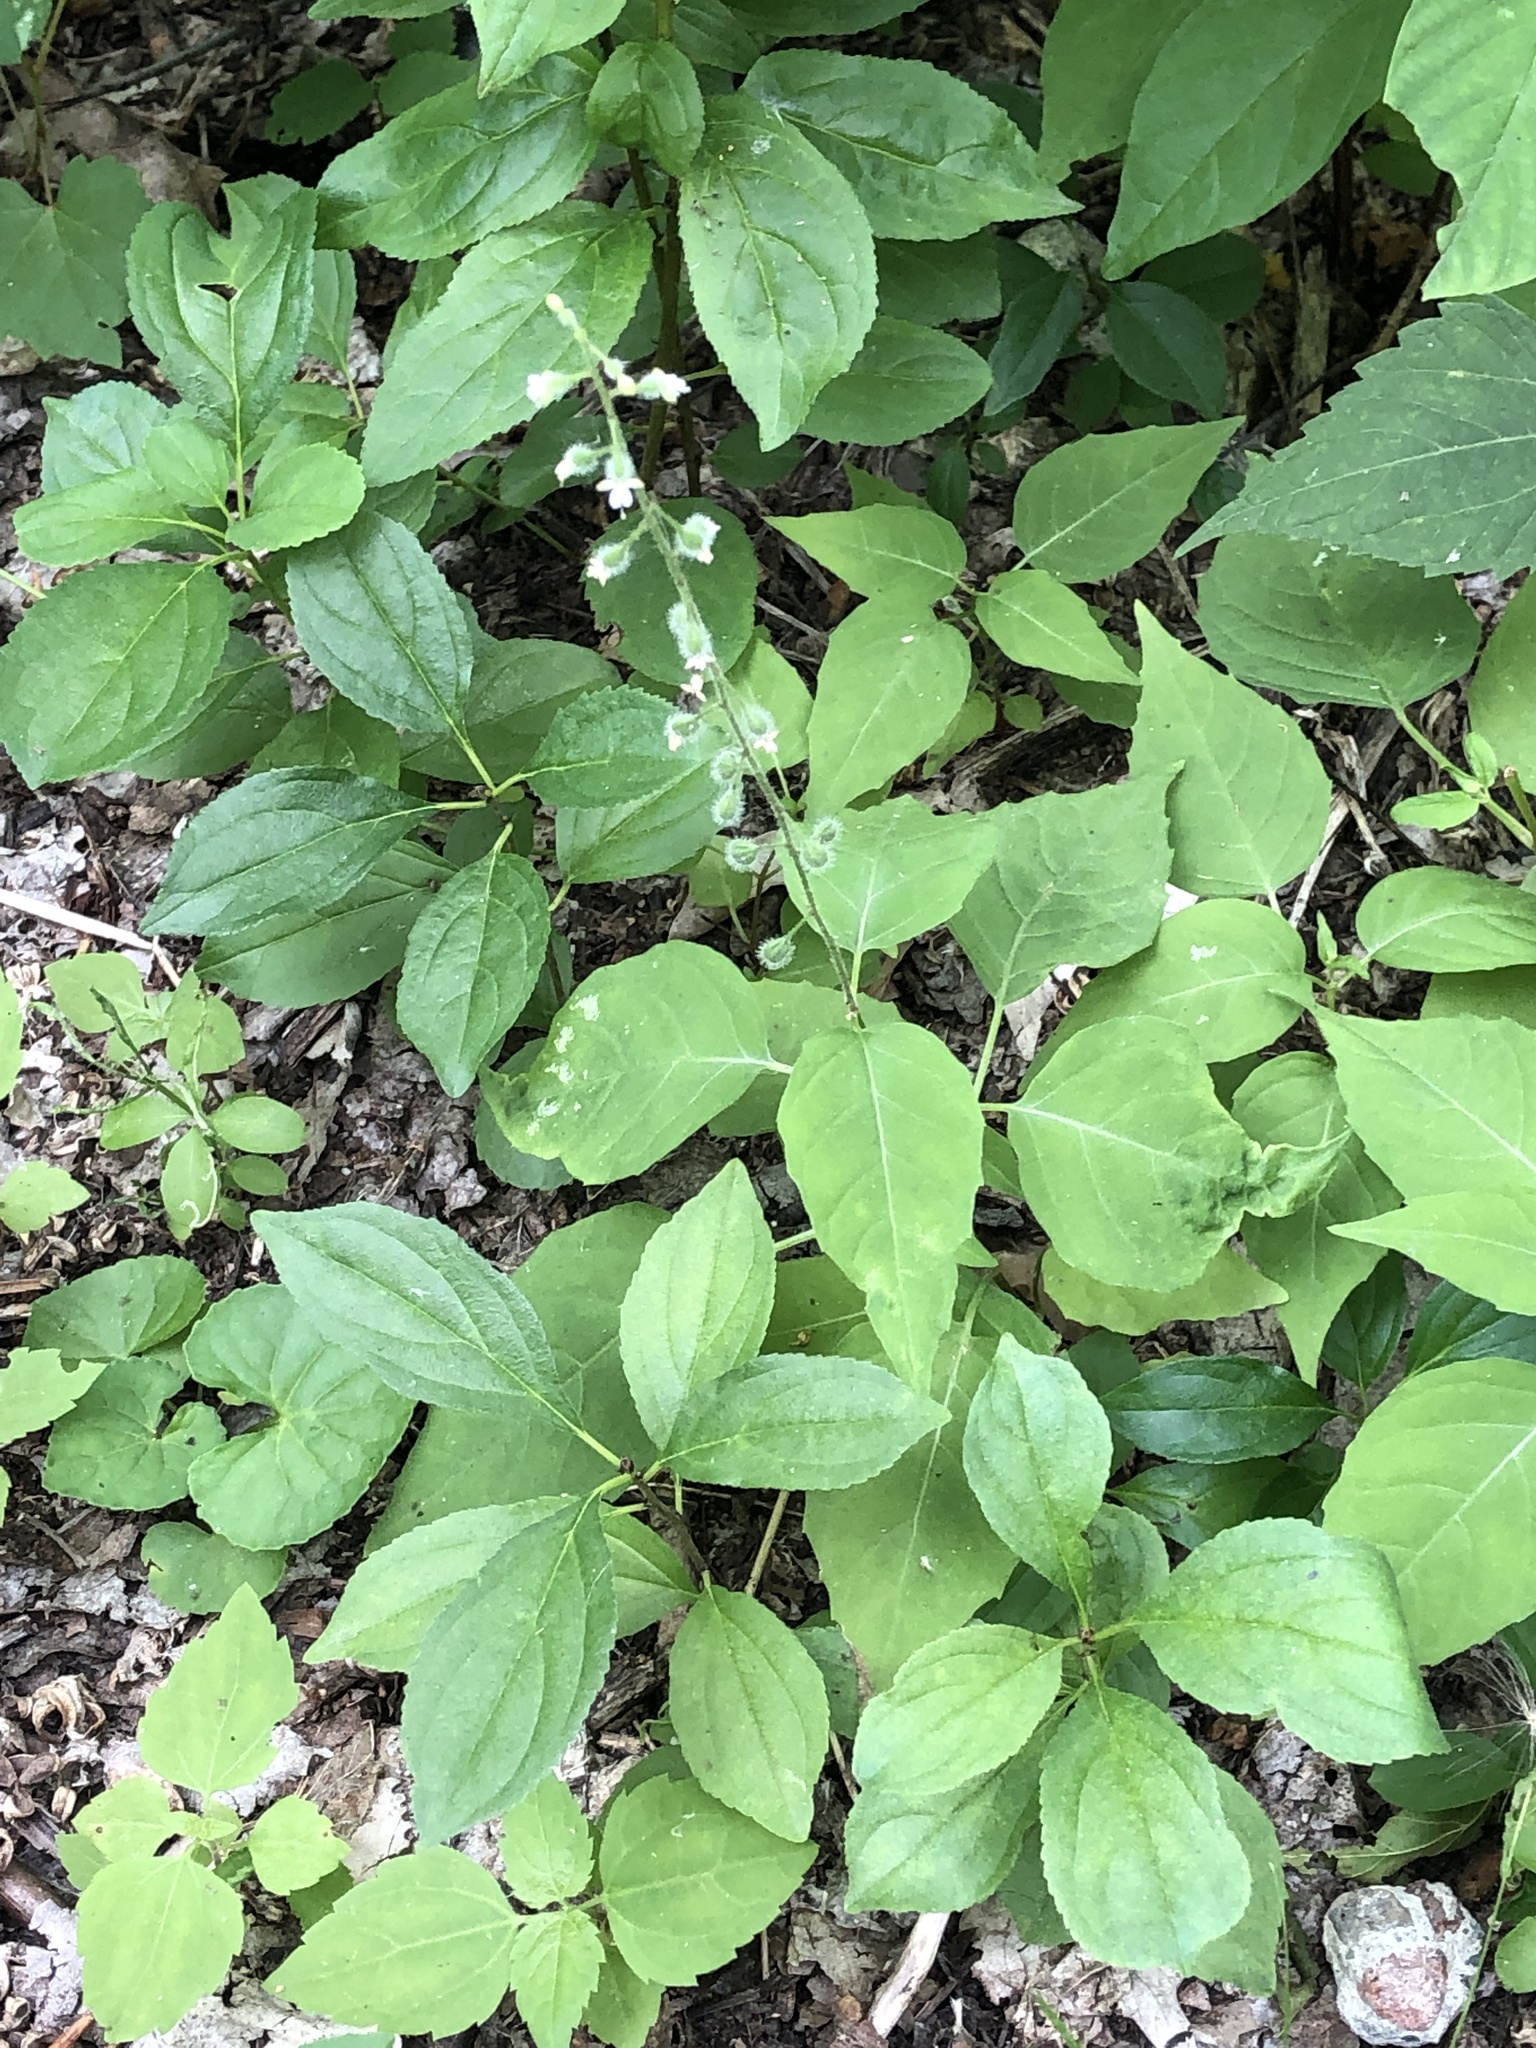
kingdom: Plantae
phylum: Tracheophyta
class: Magnoliopsida
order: Myrtales
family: Onagraceae
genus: Circaea
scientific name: Circaea canadensis
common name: Broad-leaved enchanter's nightshade
